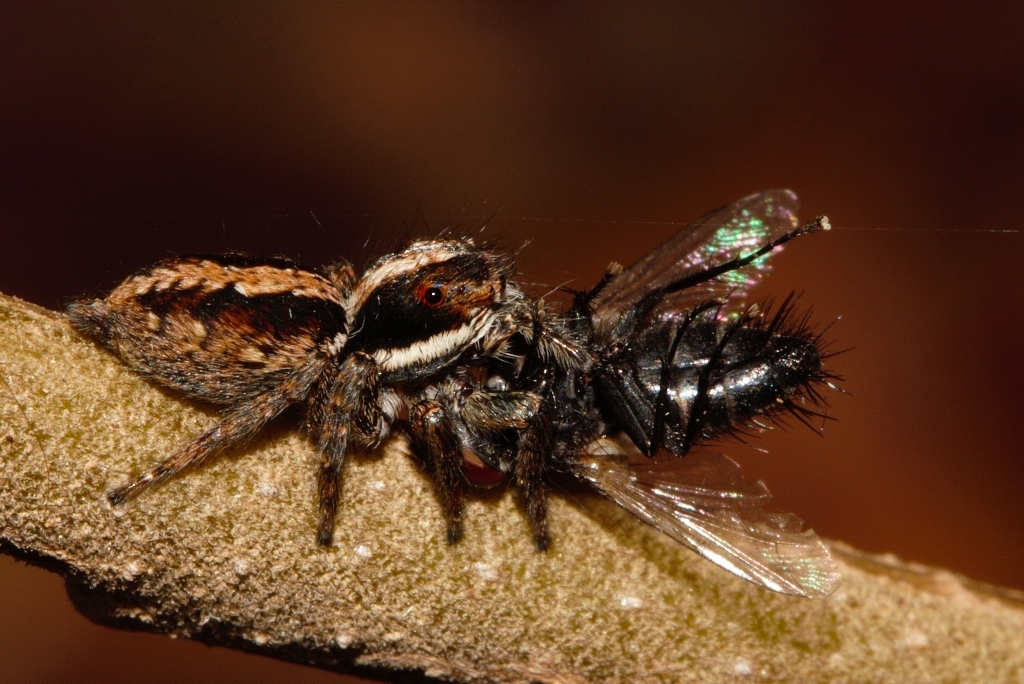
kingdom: Animalia
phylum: Arthropoda
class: Arachnida
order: Araneae
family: Salticidae
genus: Pignus
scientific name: Pignus simoni
